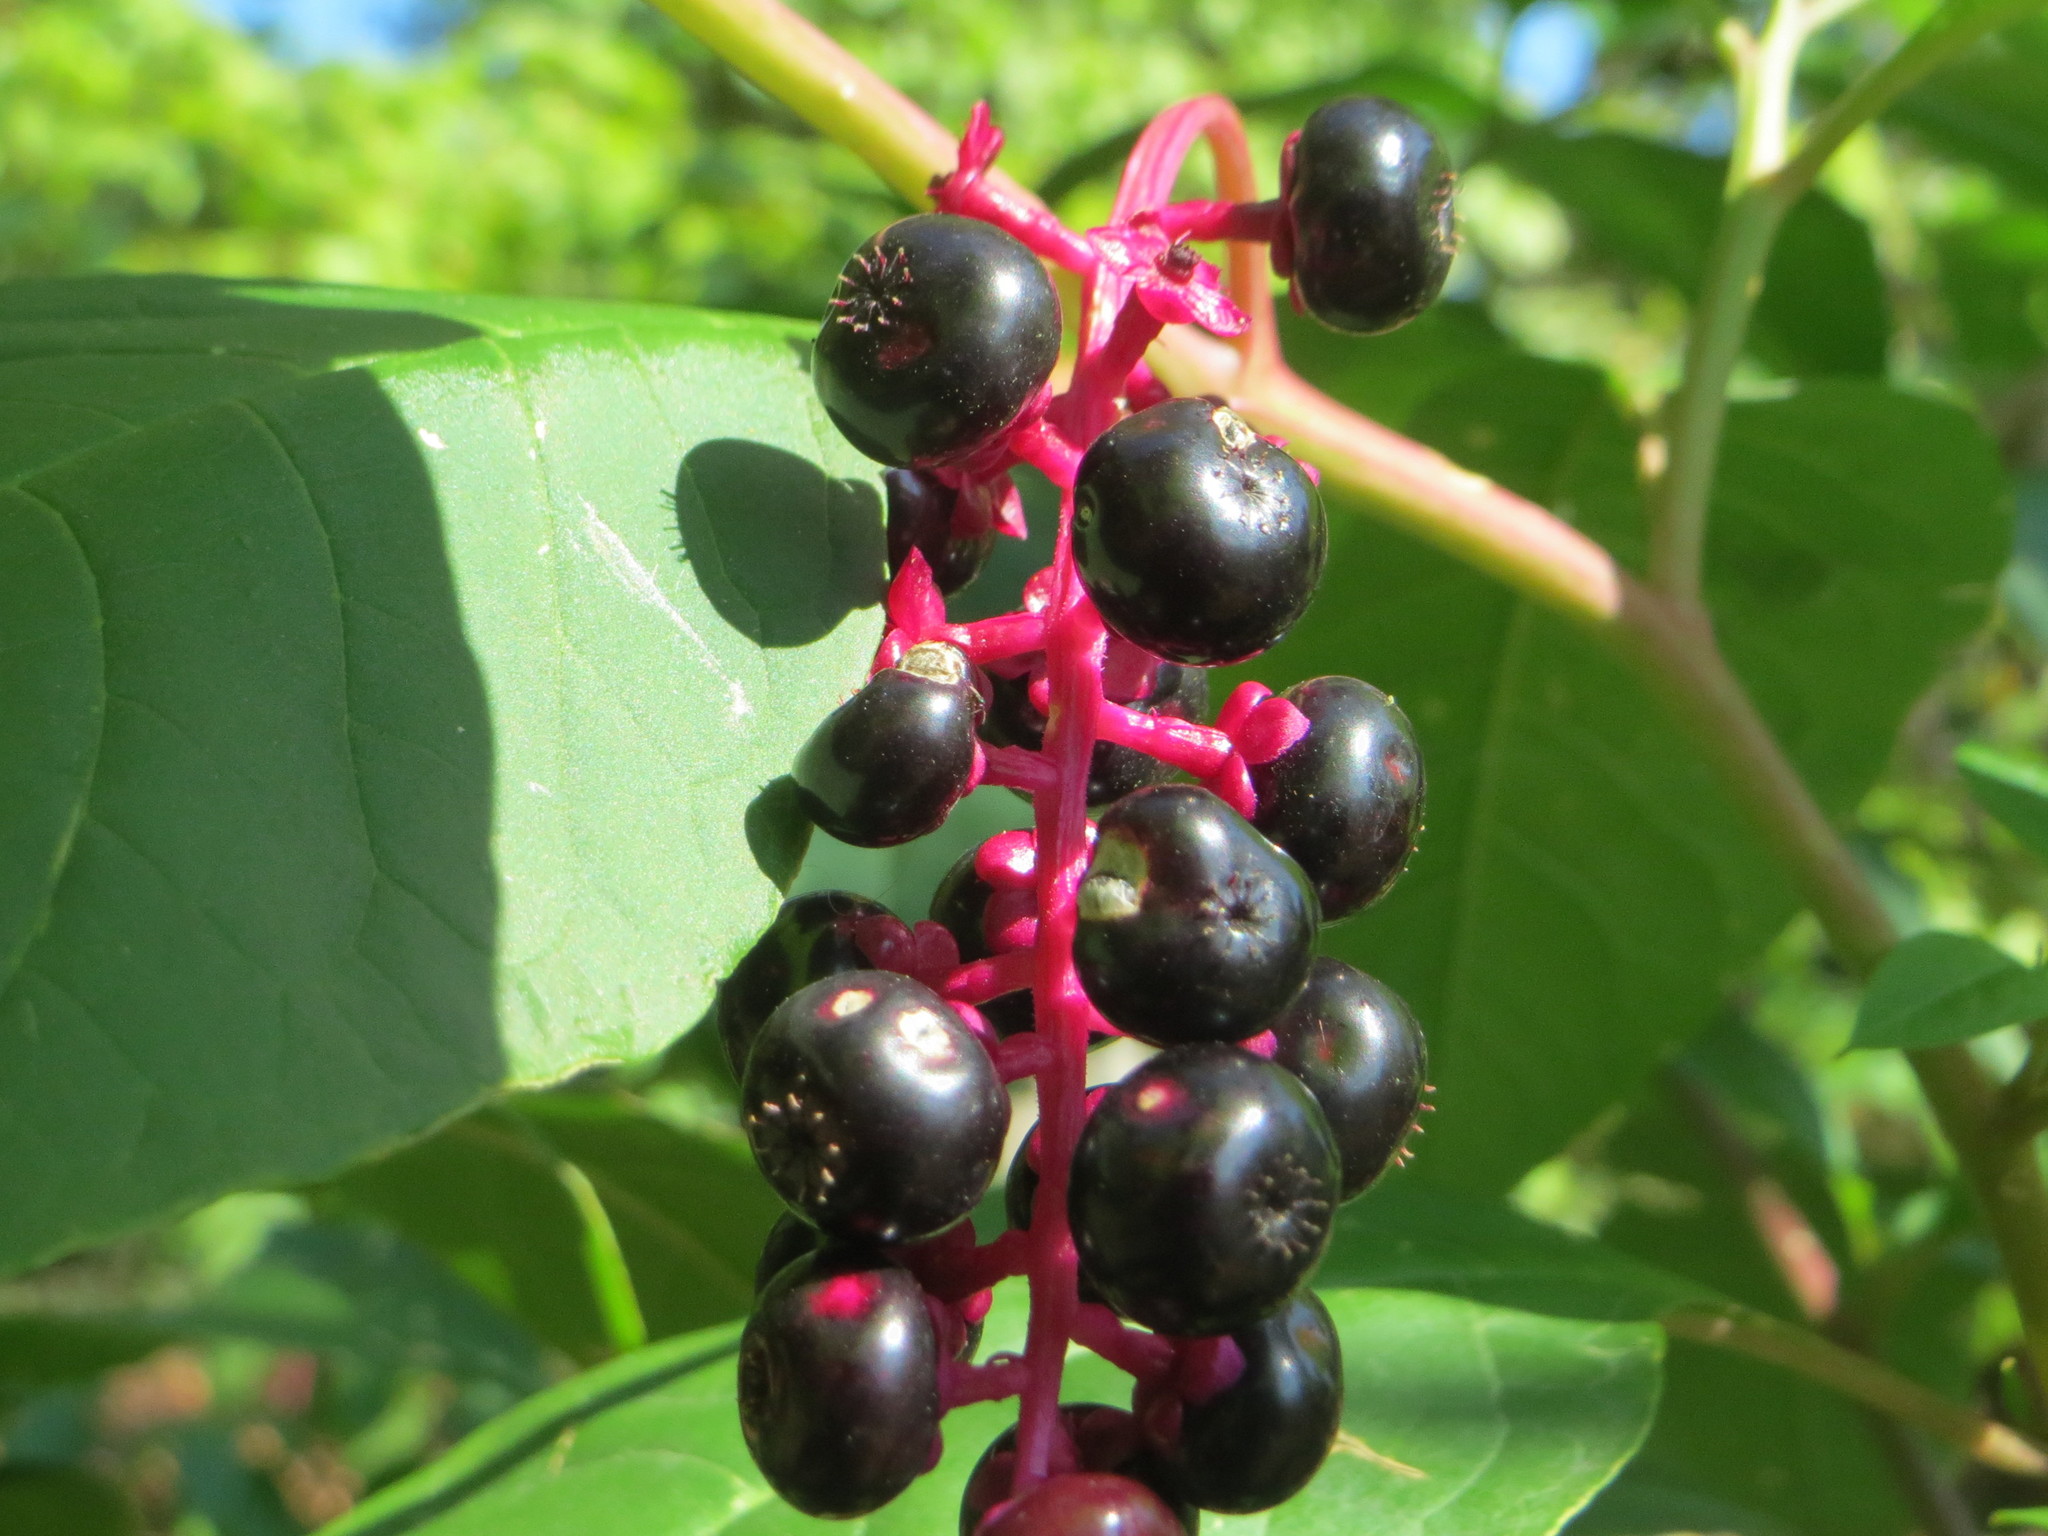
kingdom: Plantae
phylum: Tracheophyta
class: Magnoliopsida
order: Caryophyllales
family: Phytolaccaceae
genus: Phytolacca
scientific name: Phytolacca americana
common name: American pokeweed
